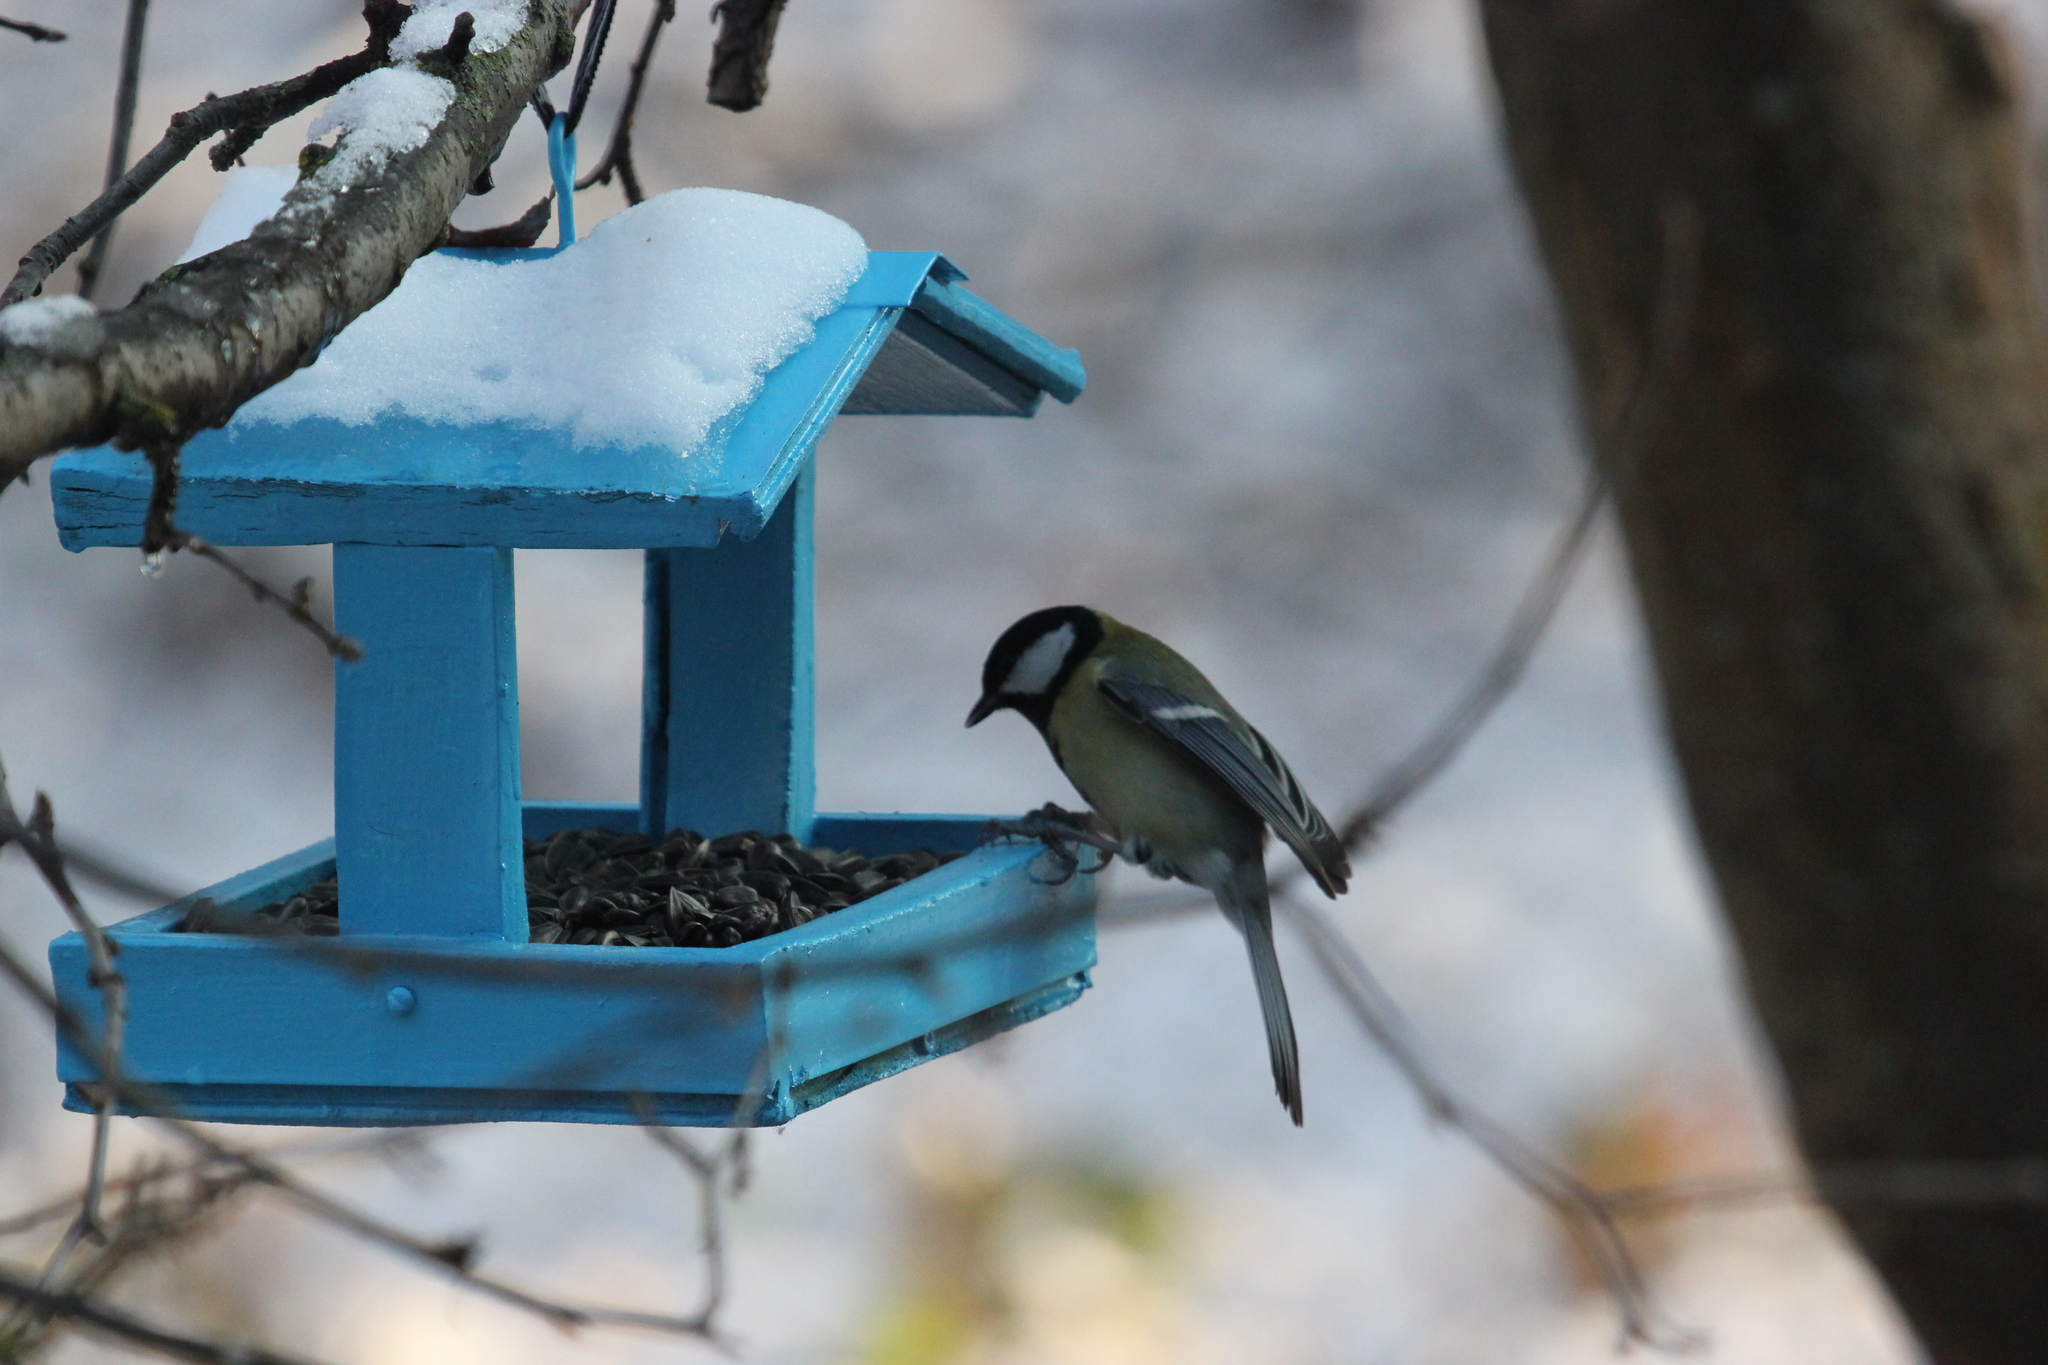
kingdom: Animalia
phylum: Chordata
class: Aves
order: Passeriformes
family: Paridae
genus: Parus
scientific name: Parus major
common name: Great tit
